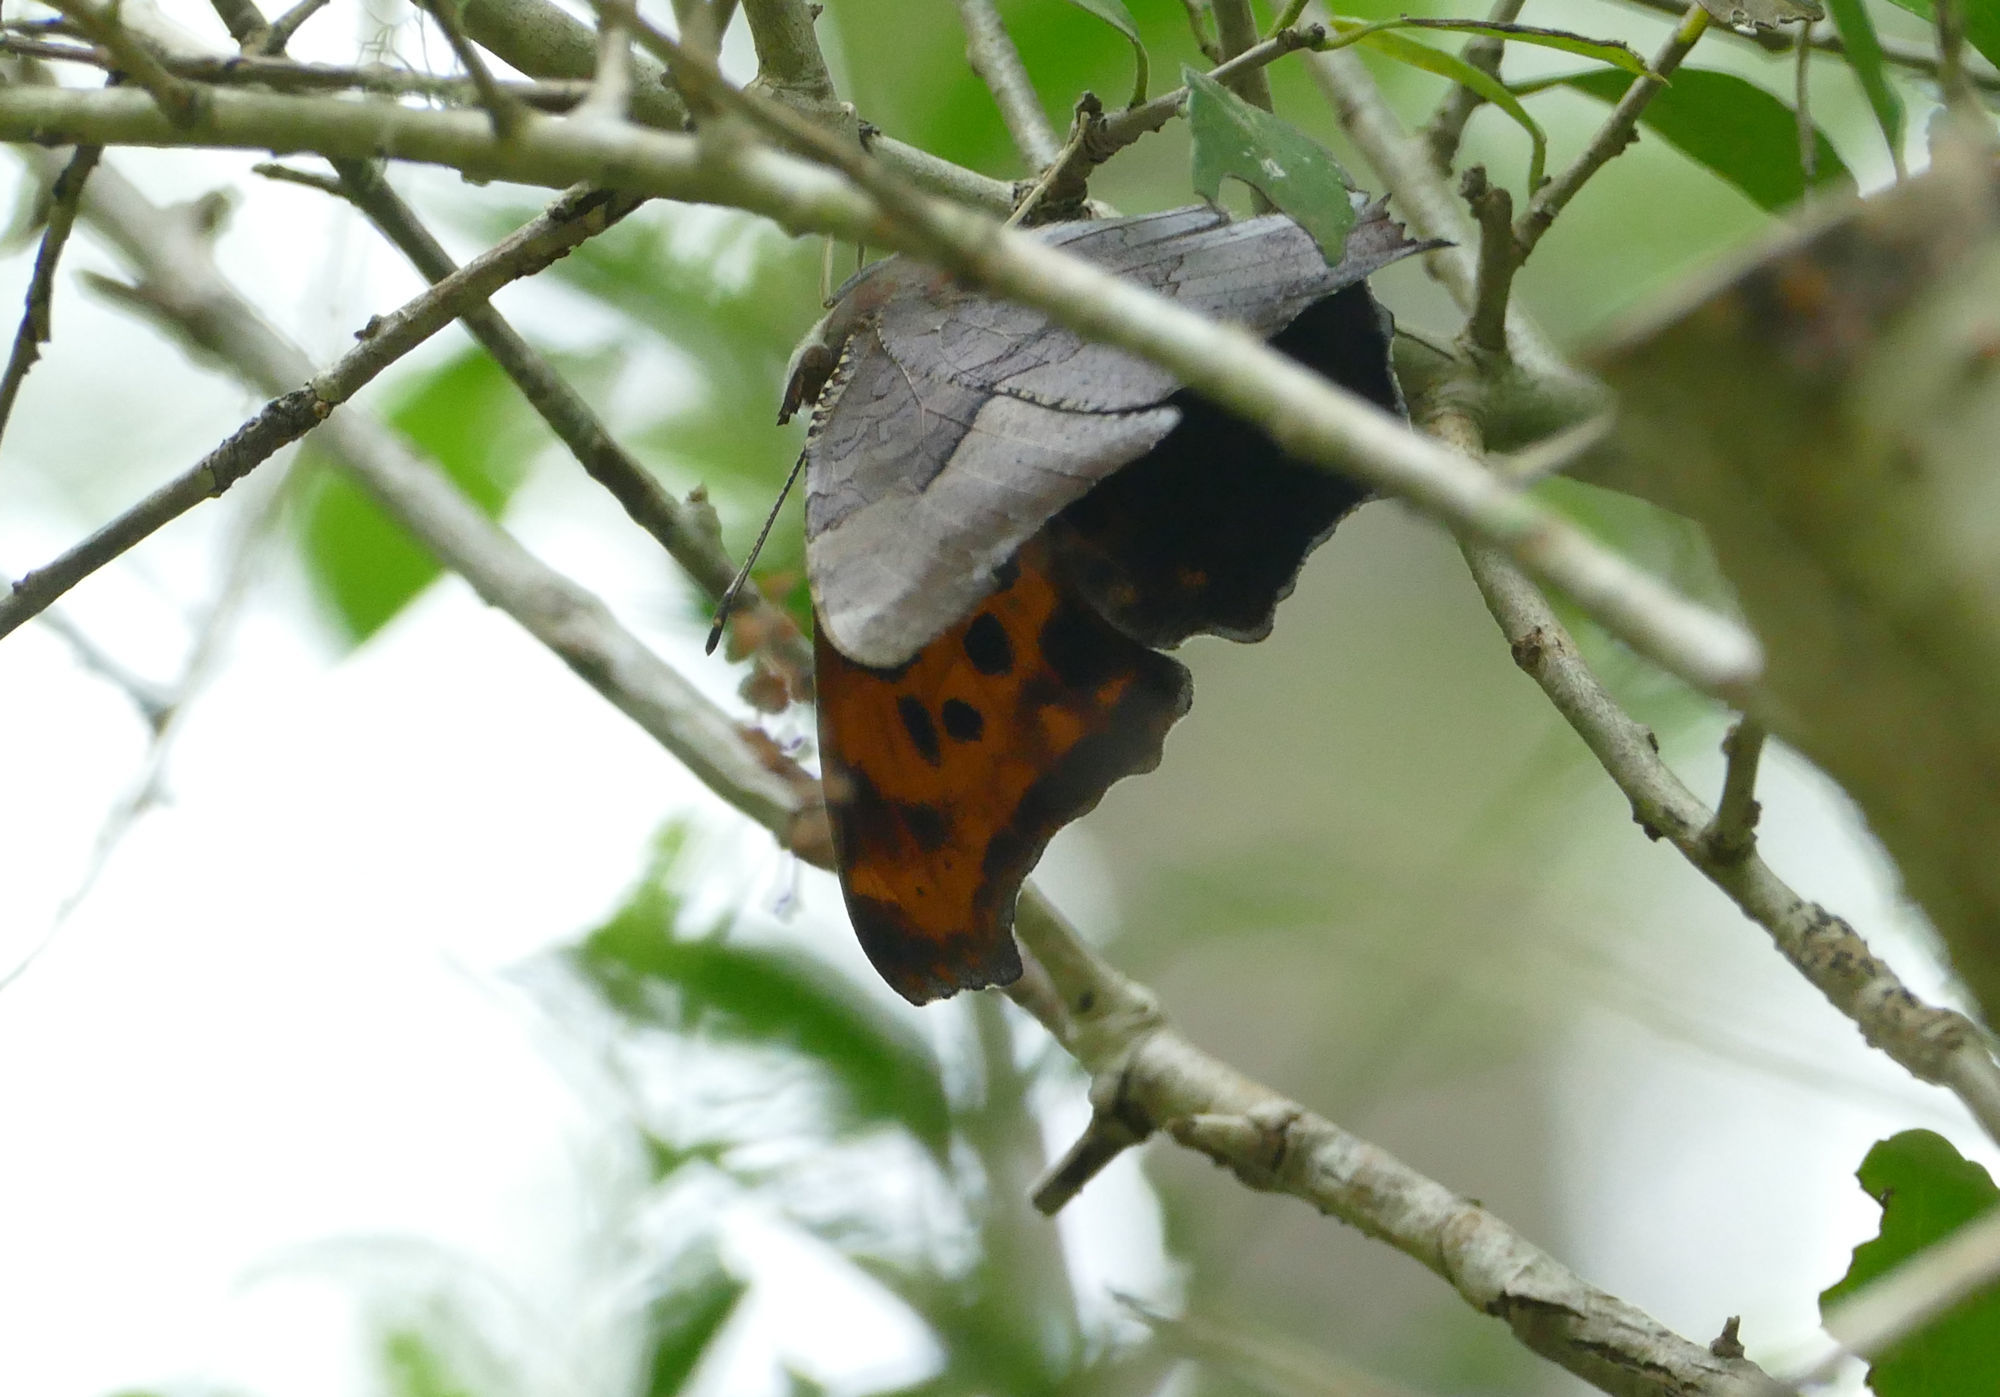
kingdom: Animalia
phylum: Arthropoda
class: Insecta
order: Lepidoptera
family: Nymphalidae
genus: Polygonia
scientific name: Polygonia interrogationis
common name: Question mark
